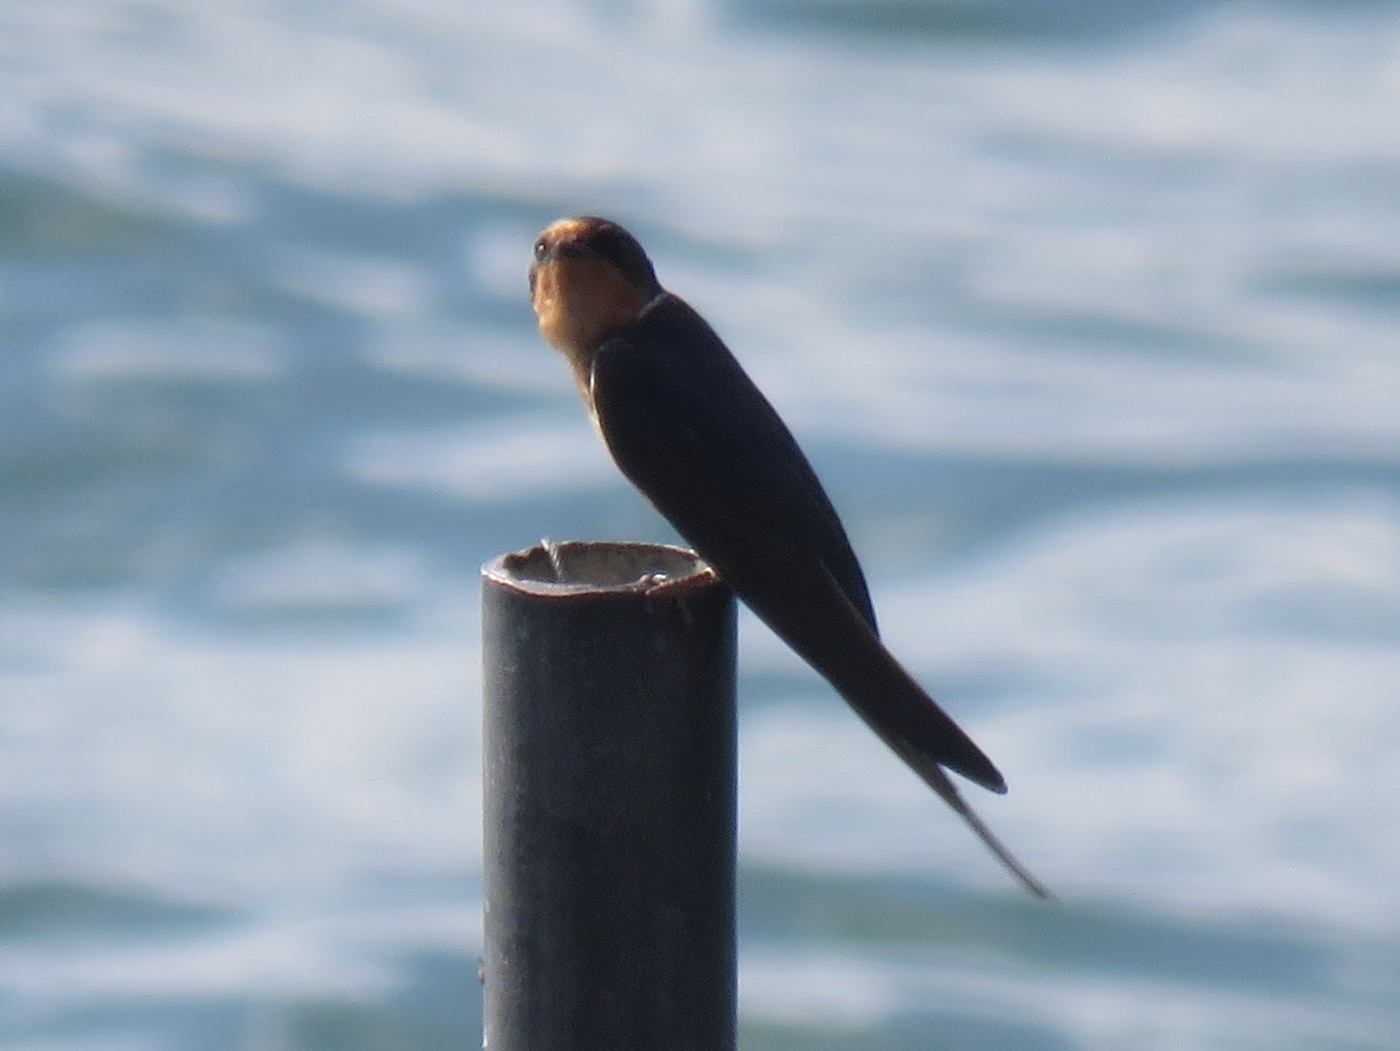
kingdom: Animalia
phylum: Chordata
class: Aves
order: Passeriformes
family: Hirundinidae
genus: Hirundo
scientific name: Hirundo rustica
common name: Barn swallow
